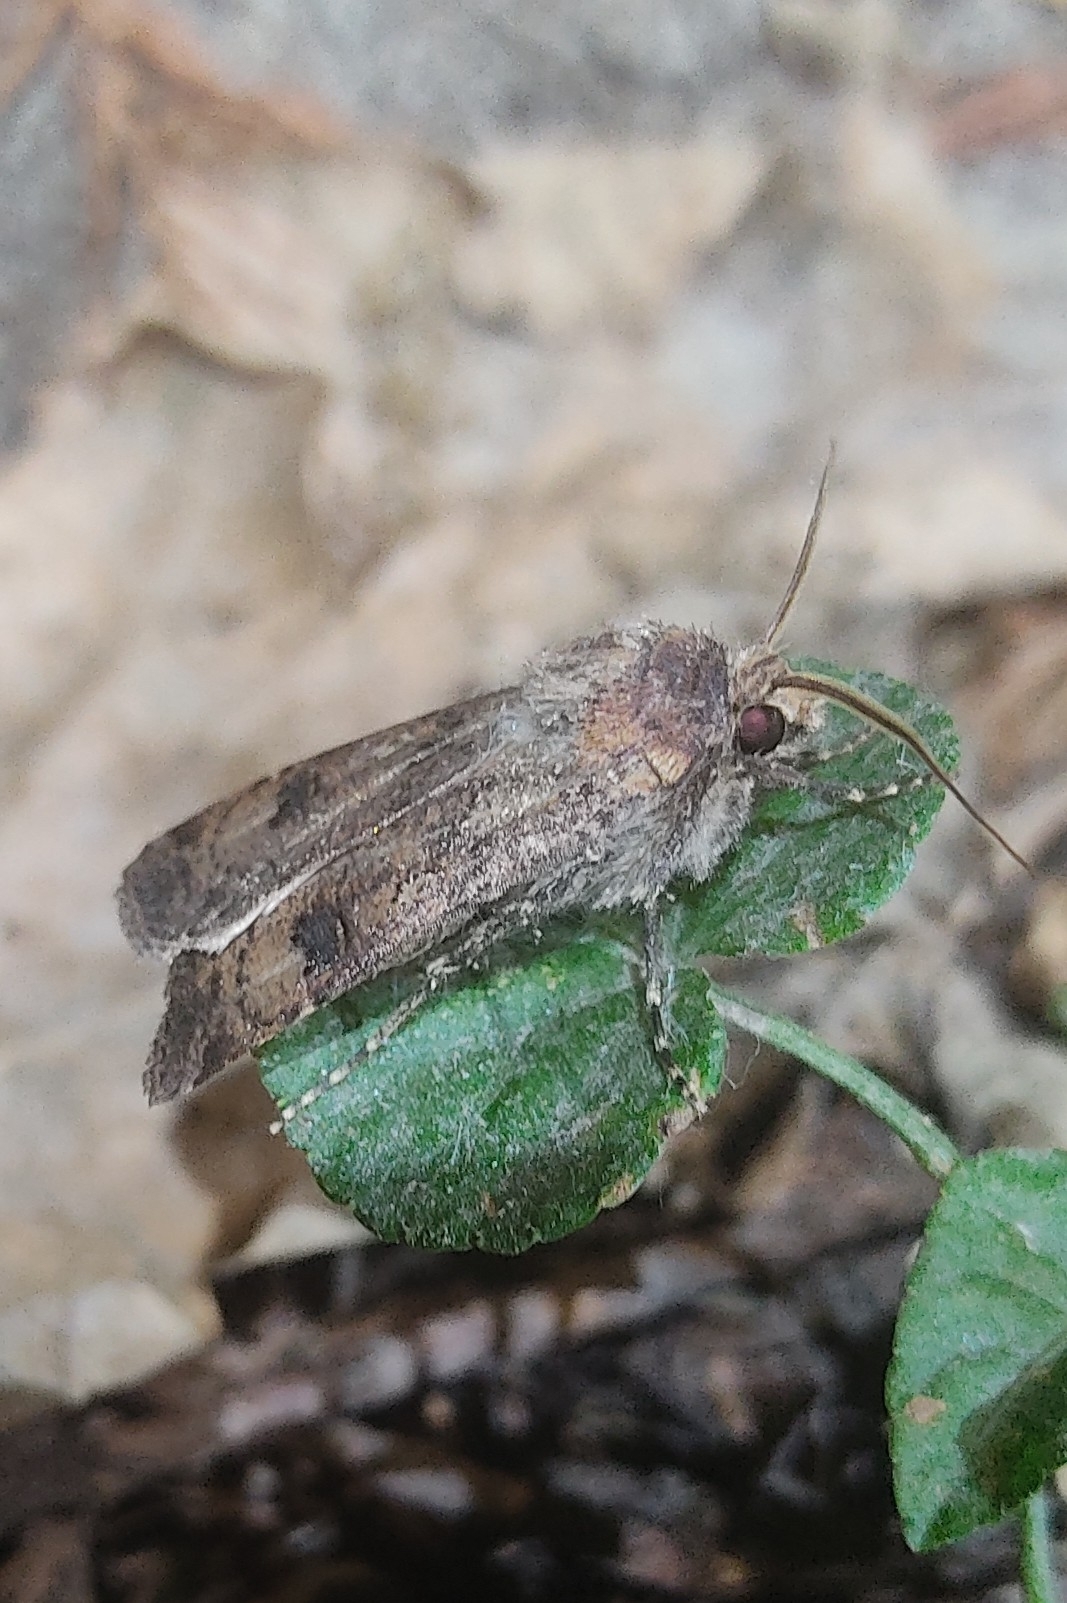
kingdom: Animalia
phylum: Arthropoda
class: Insecta
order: Lepidoptera
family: Noctuidae
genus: Agrotis
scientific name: Agrotis trux
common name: Crescent dart
